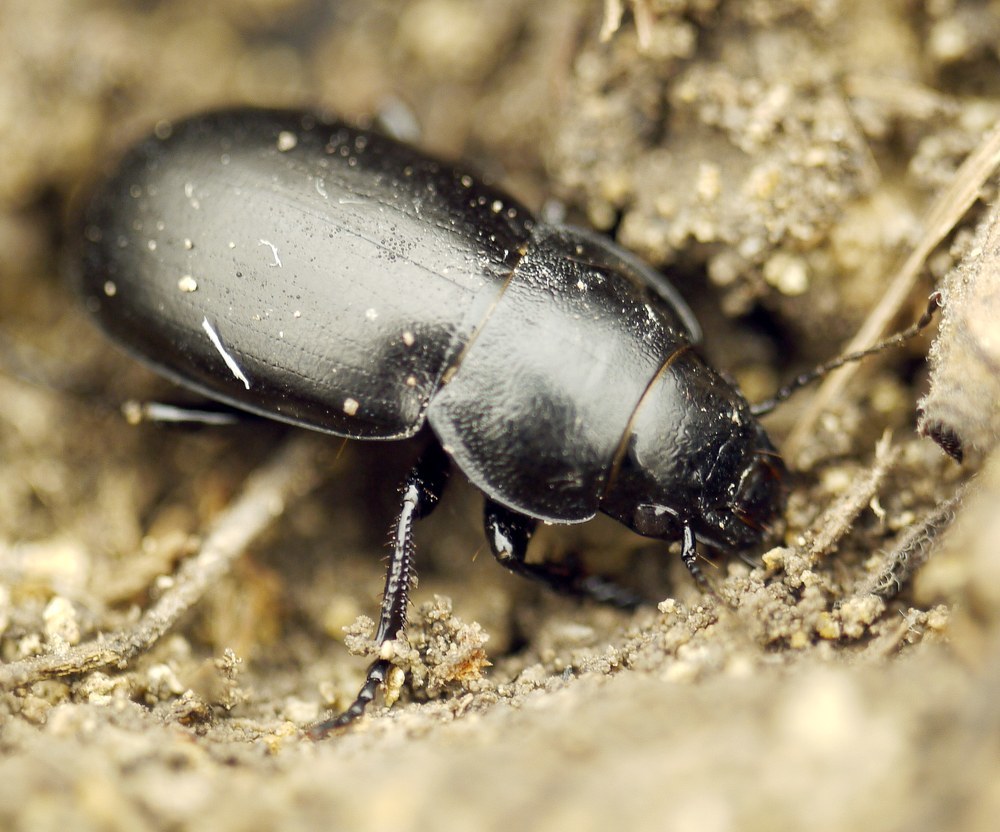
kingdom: Animalia
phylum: Arthropoda
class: Insecta
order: Coleoptera
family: Carabidae
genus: Zabrus
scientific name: Zabrus spinipes
